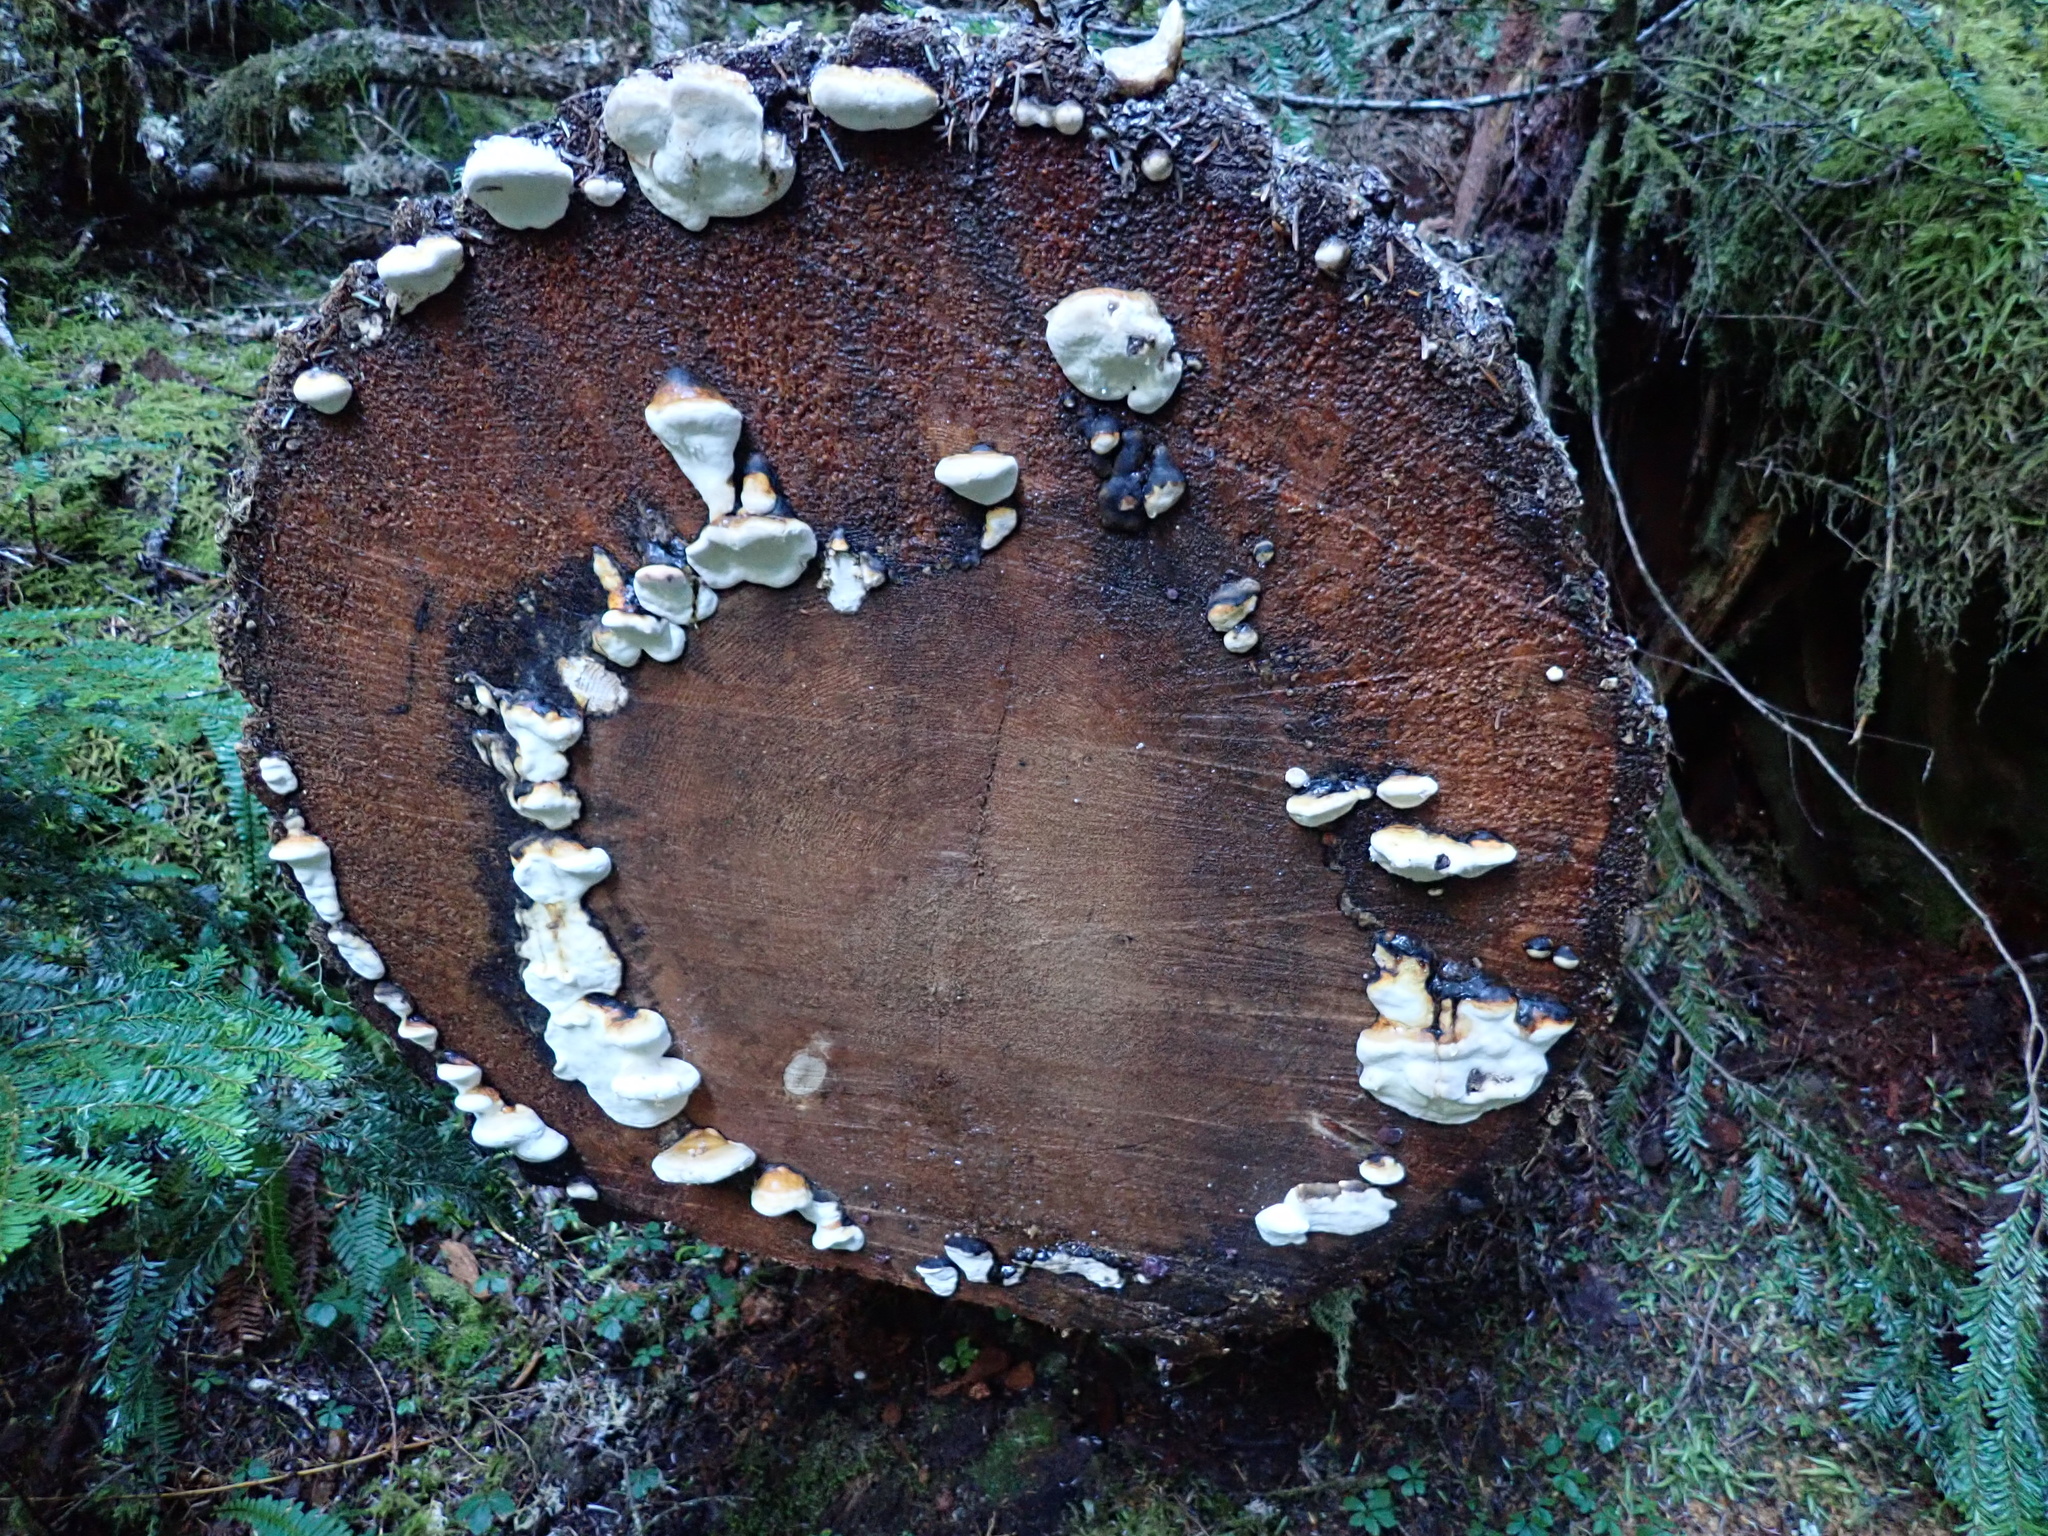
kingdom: Fungi
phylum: Basidiomycota
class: Agaricomycetes
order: Polyporales
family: Fomitopsidaceae
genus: Fomitopsis
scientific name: Fomitopsis mounceae
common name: Northern red belt
